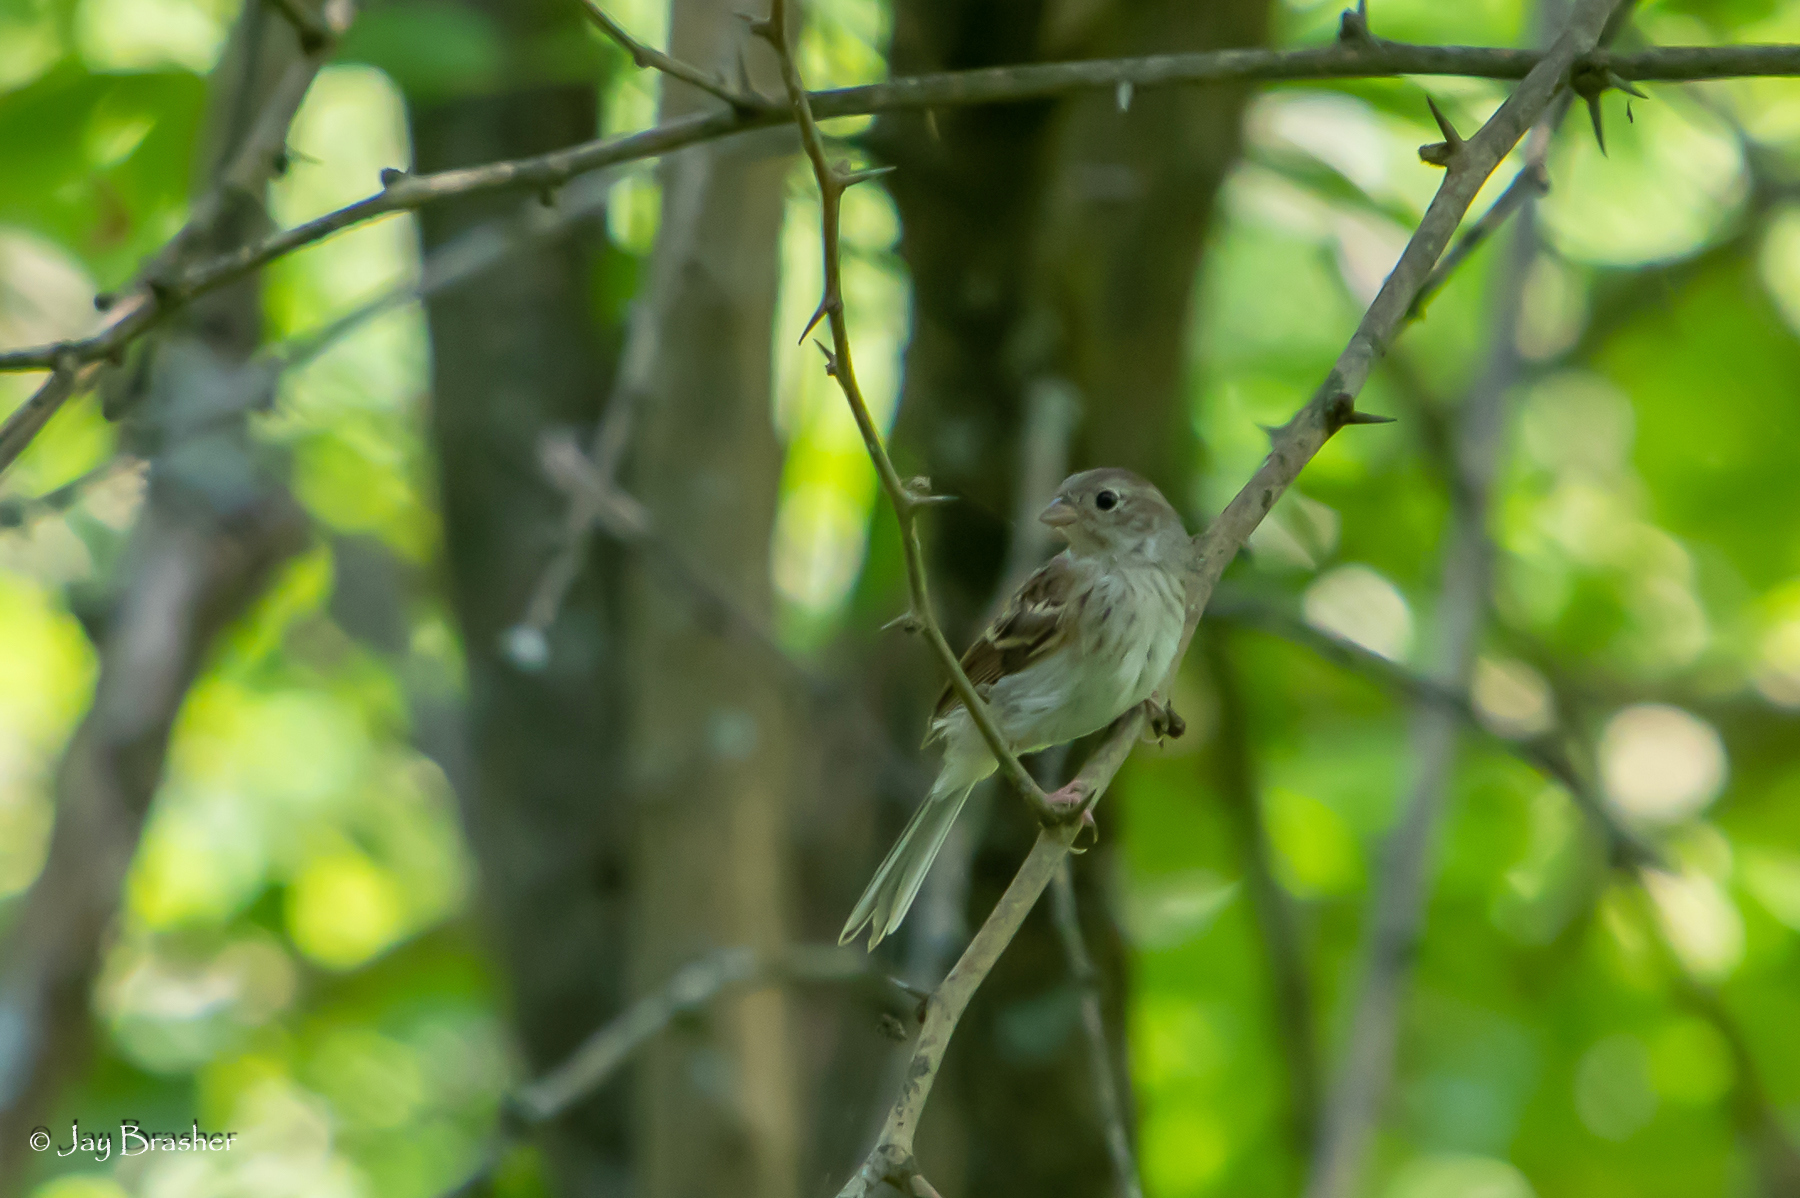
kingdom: Animalia
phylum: Chordata
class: Aves
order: Passeriformes
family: Passerellidae
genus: Spizella
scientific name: Spizella pusilla
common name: Field sparrow
